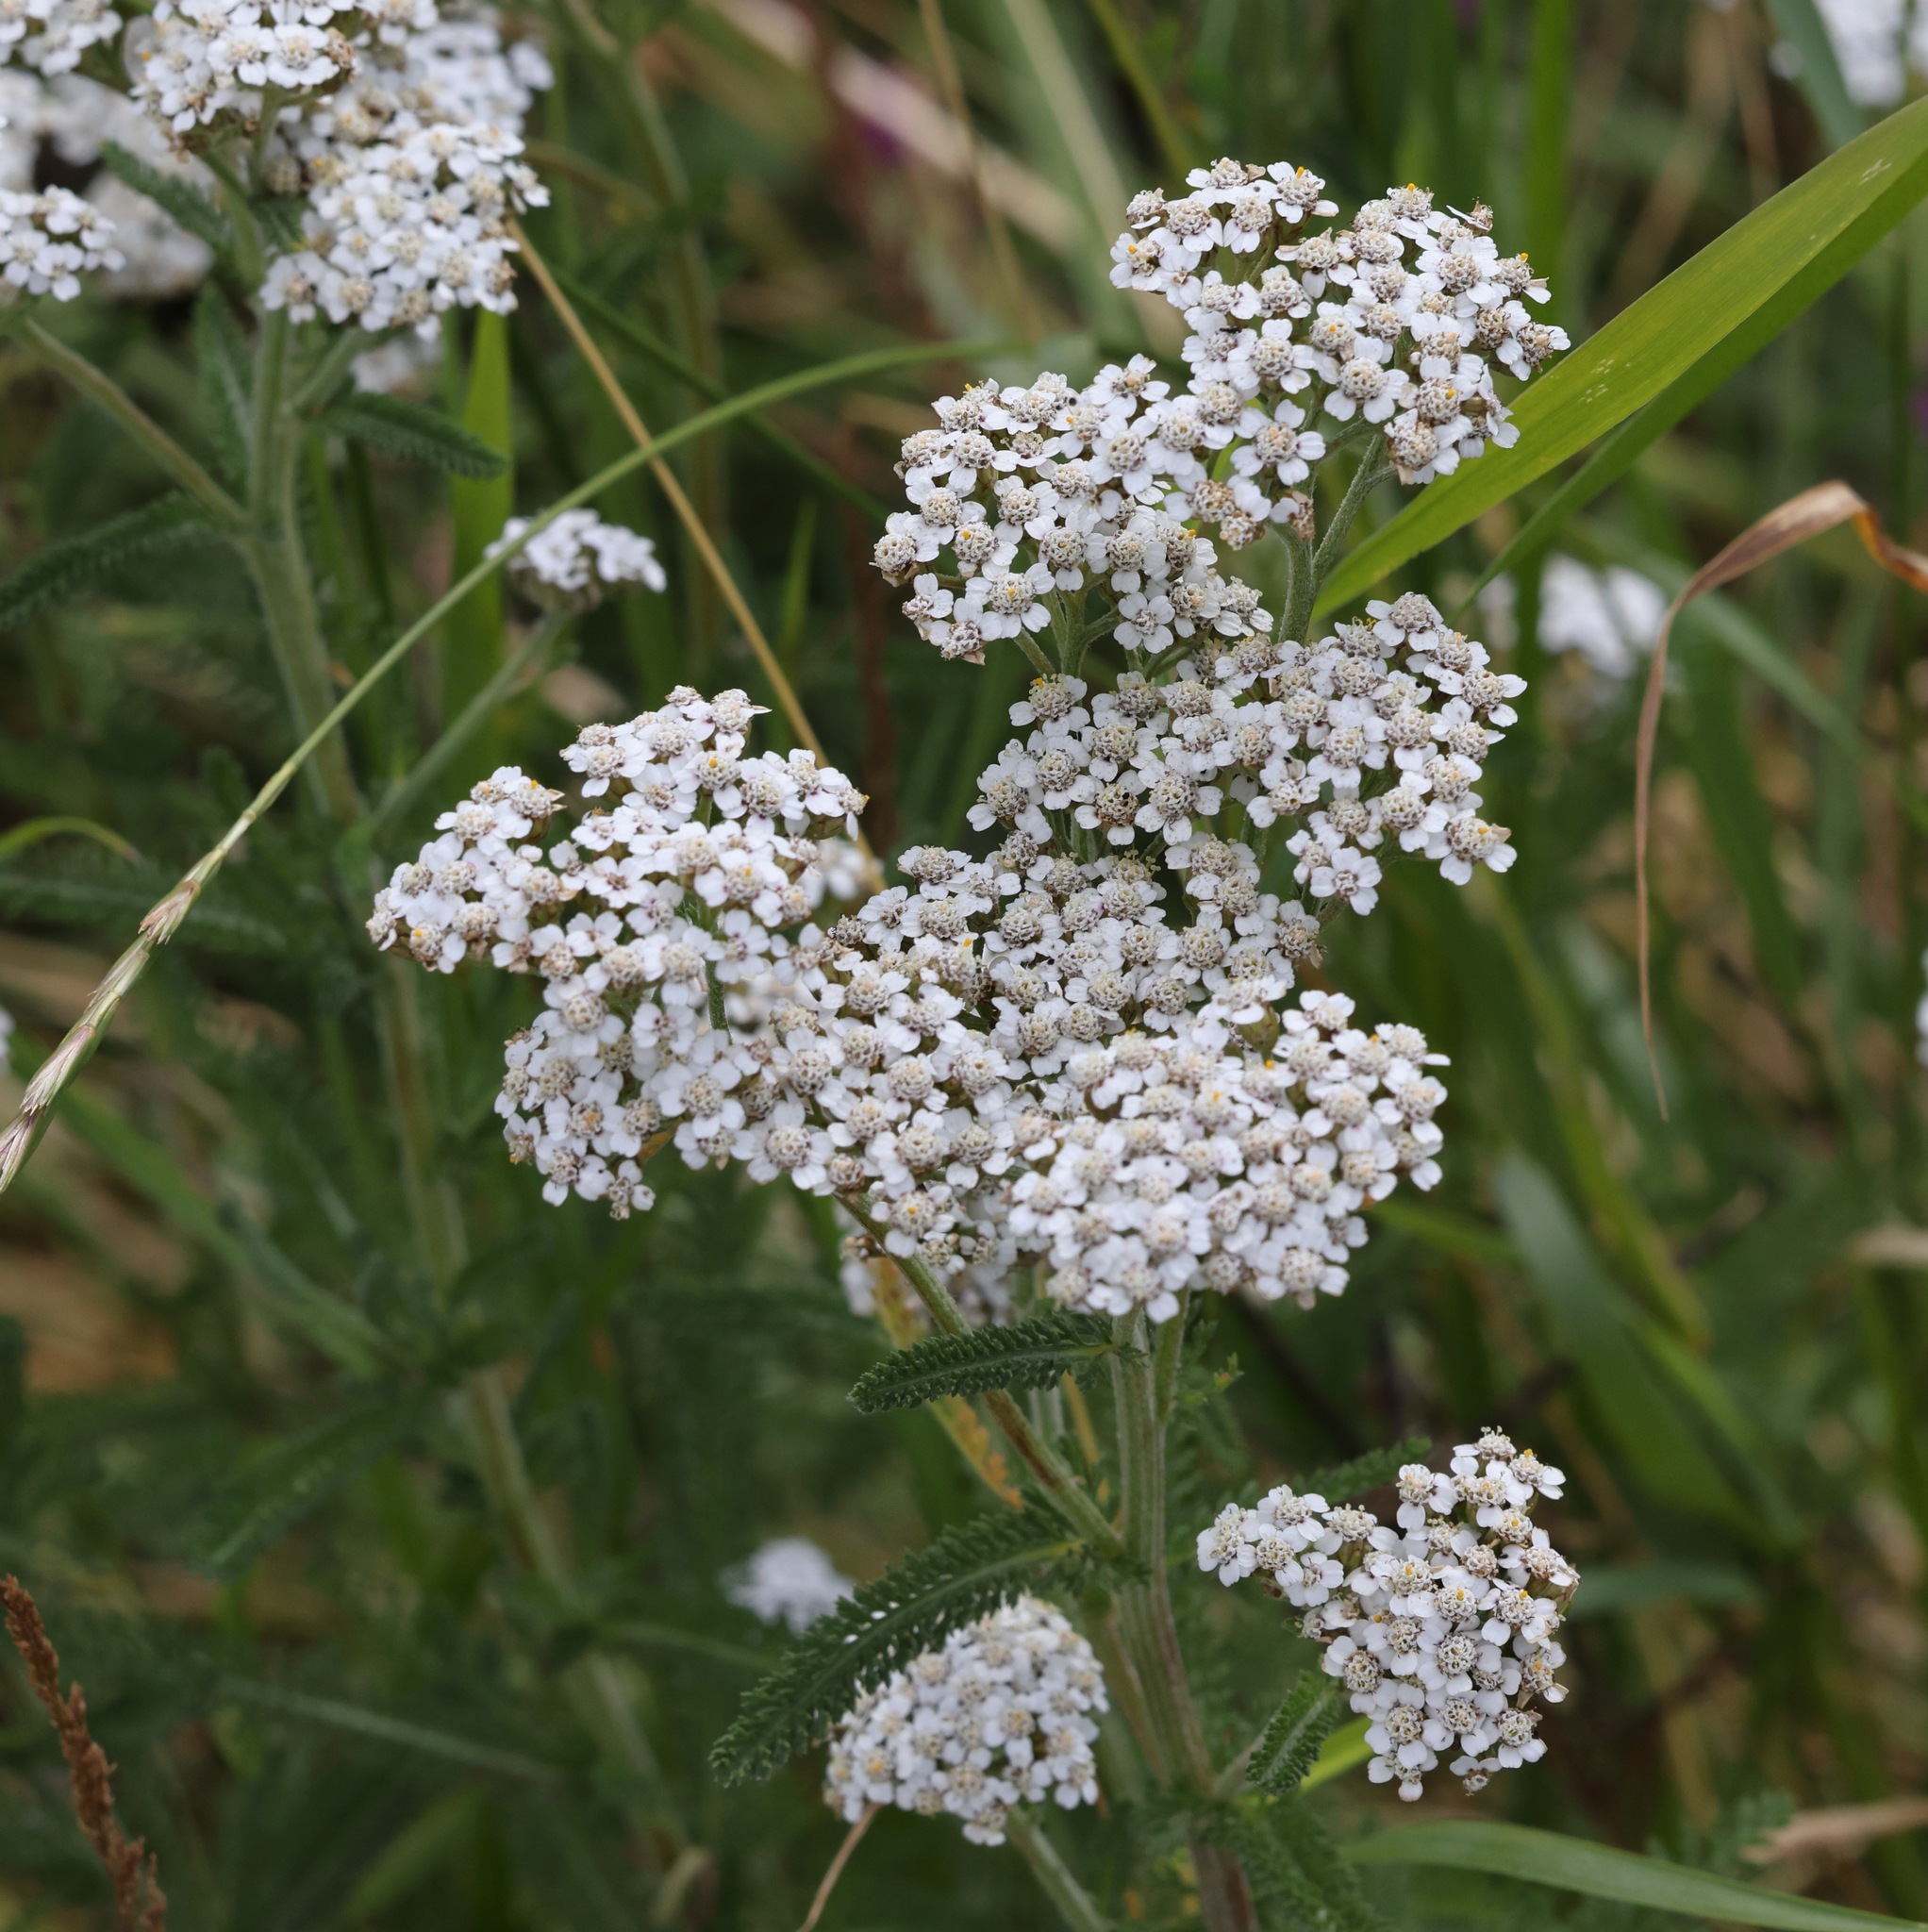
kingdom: Plantae
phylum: Tracheophyta
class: Magnoliopsida
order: Asterales
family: Asteraceae
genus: Achillea
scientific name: Achillea millefolium
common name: Yarrow
